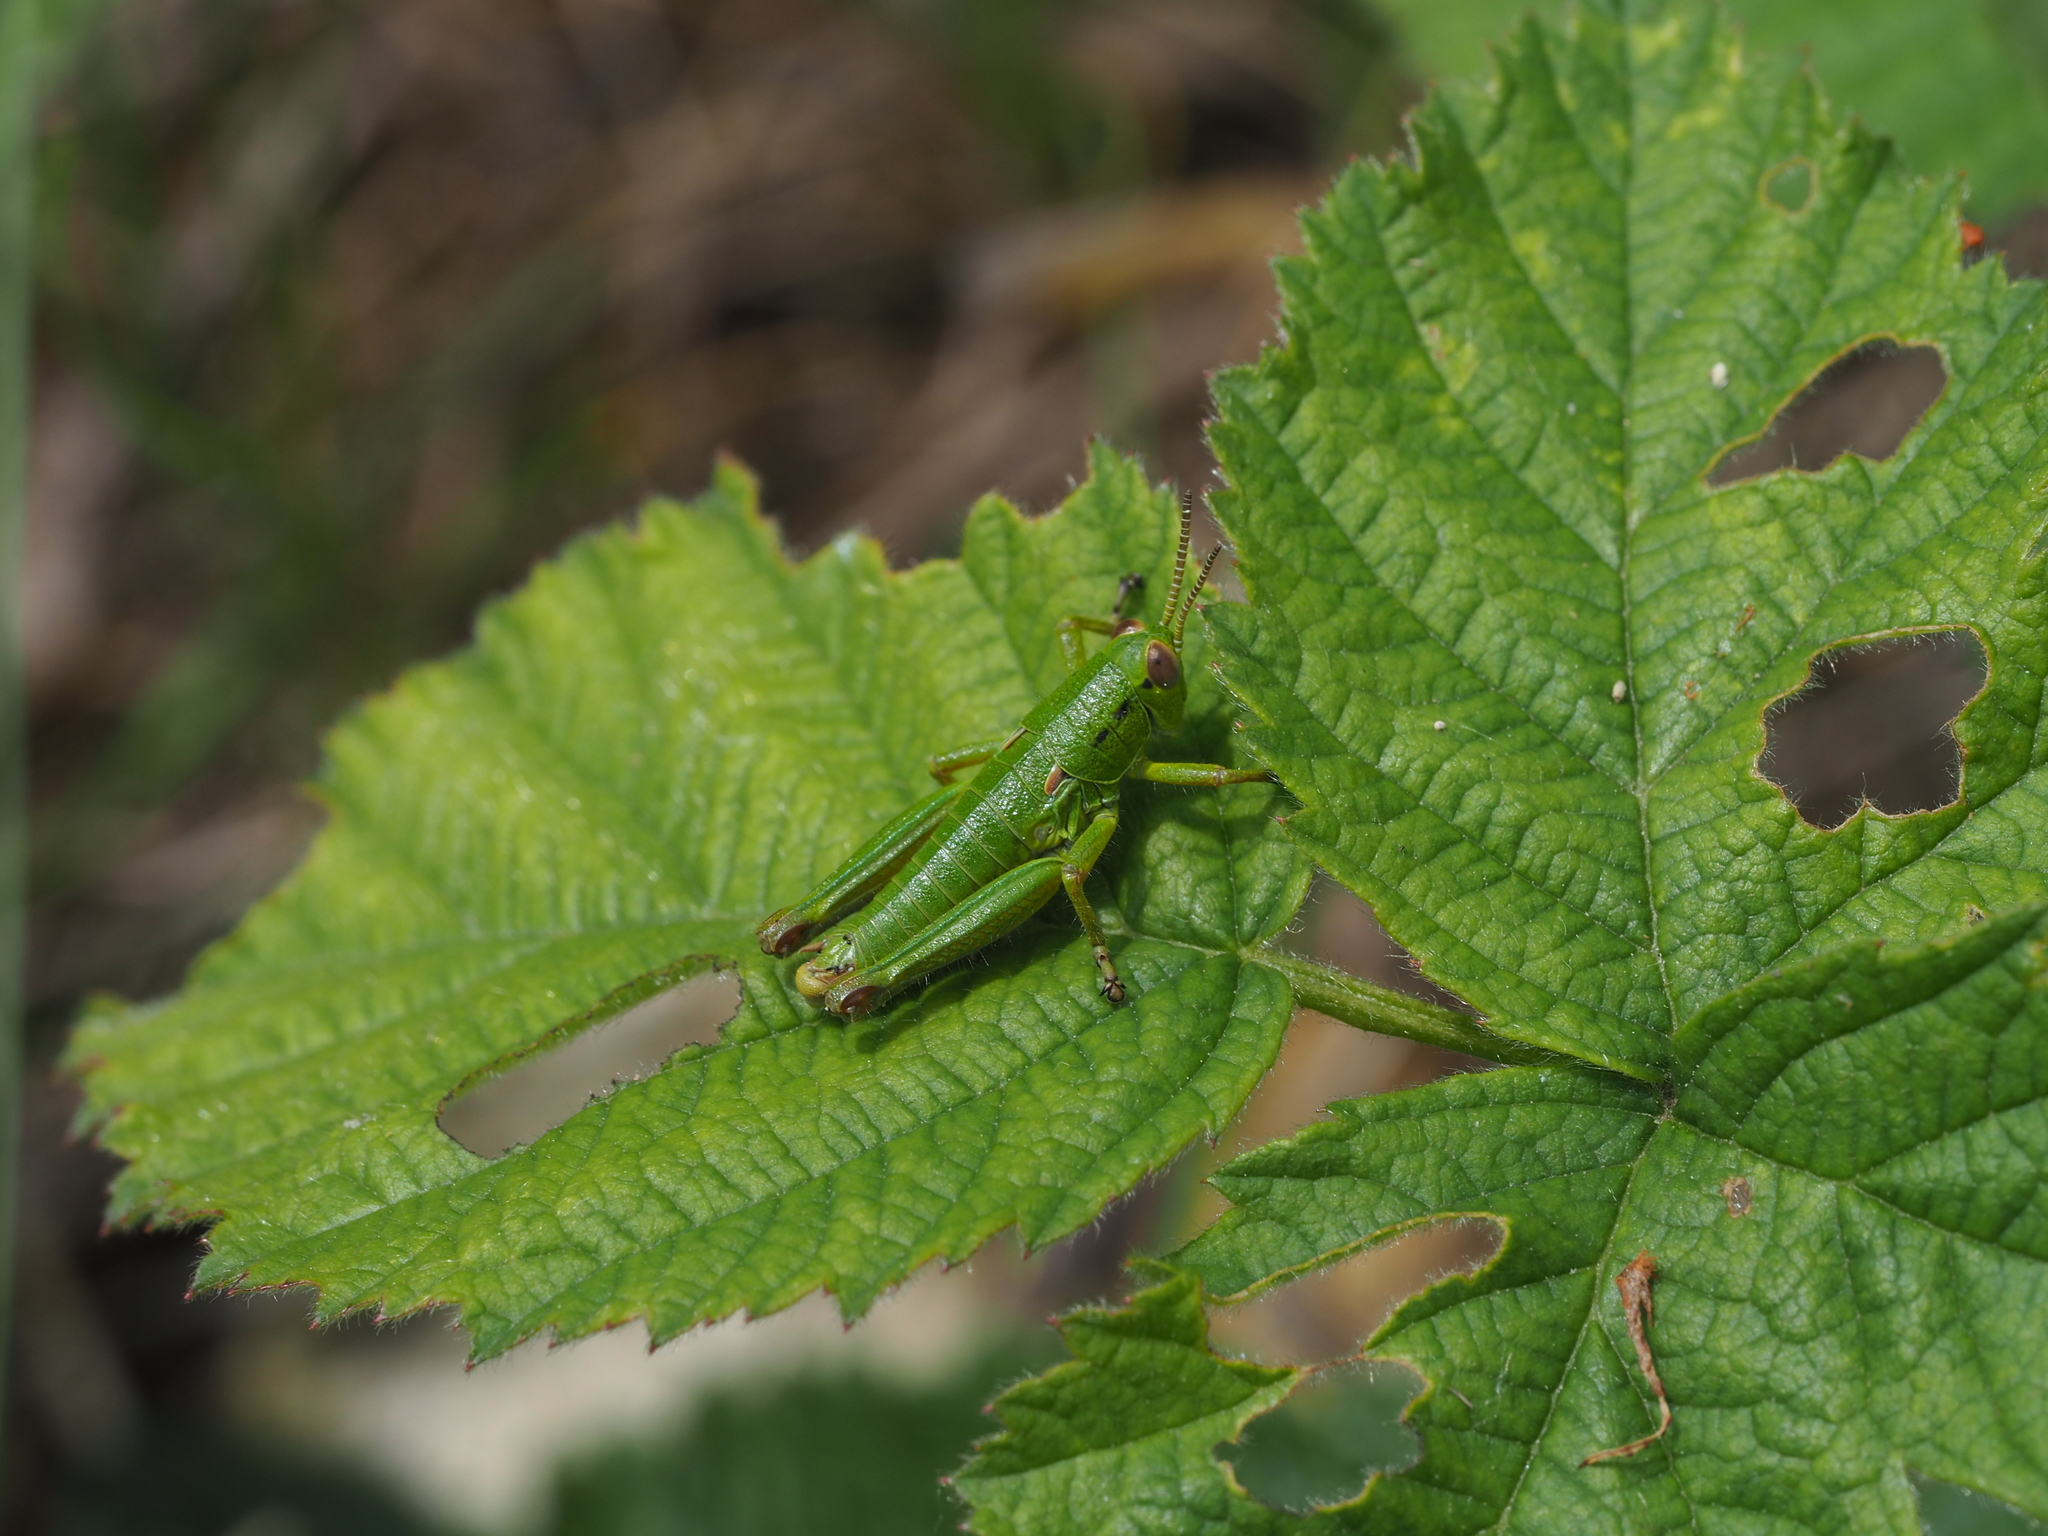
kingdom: Animalia
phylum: Arthropoda
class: Insecta
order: Orthoptera
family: Acrididae
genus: Odontopodisma
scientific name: Odontopodisma decipiens
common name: Cheating mountain grasshopper
